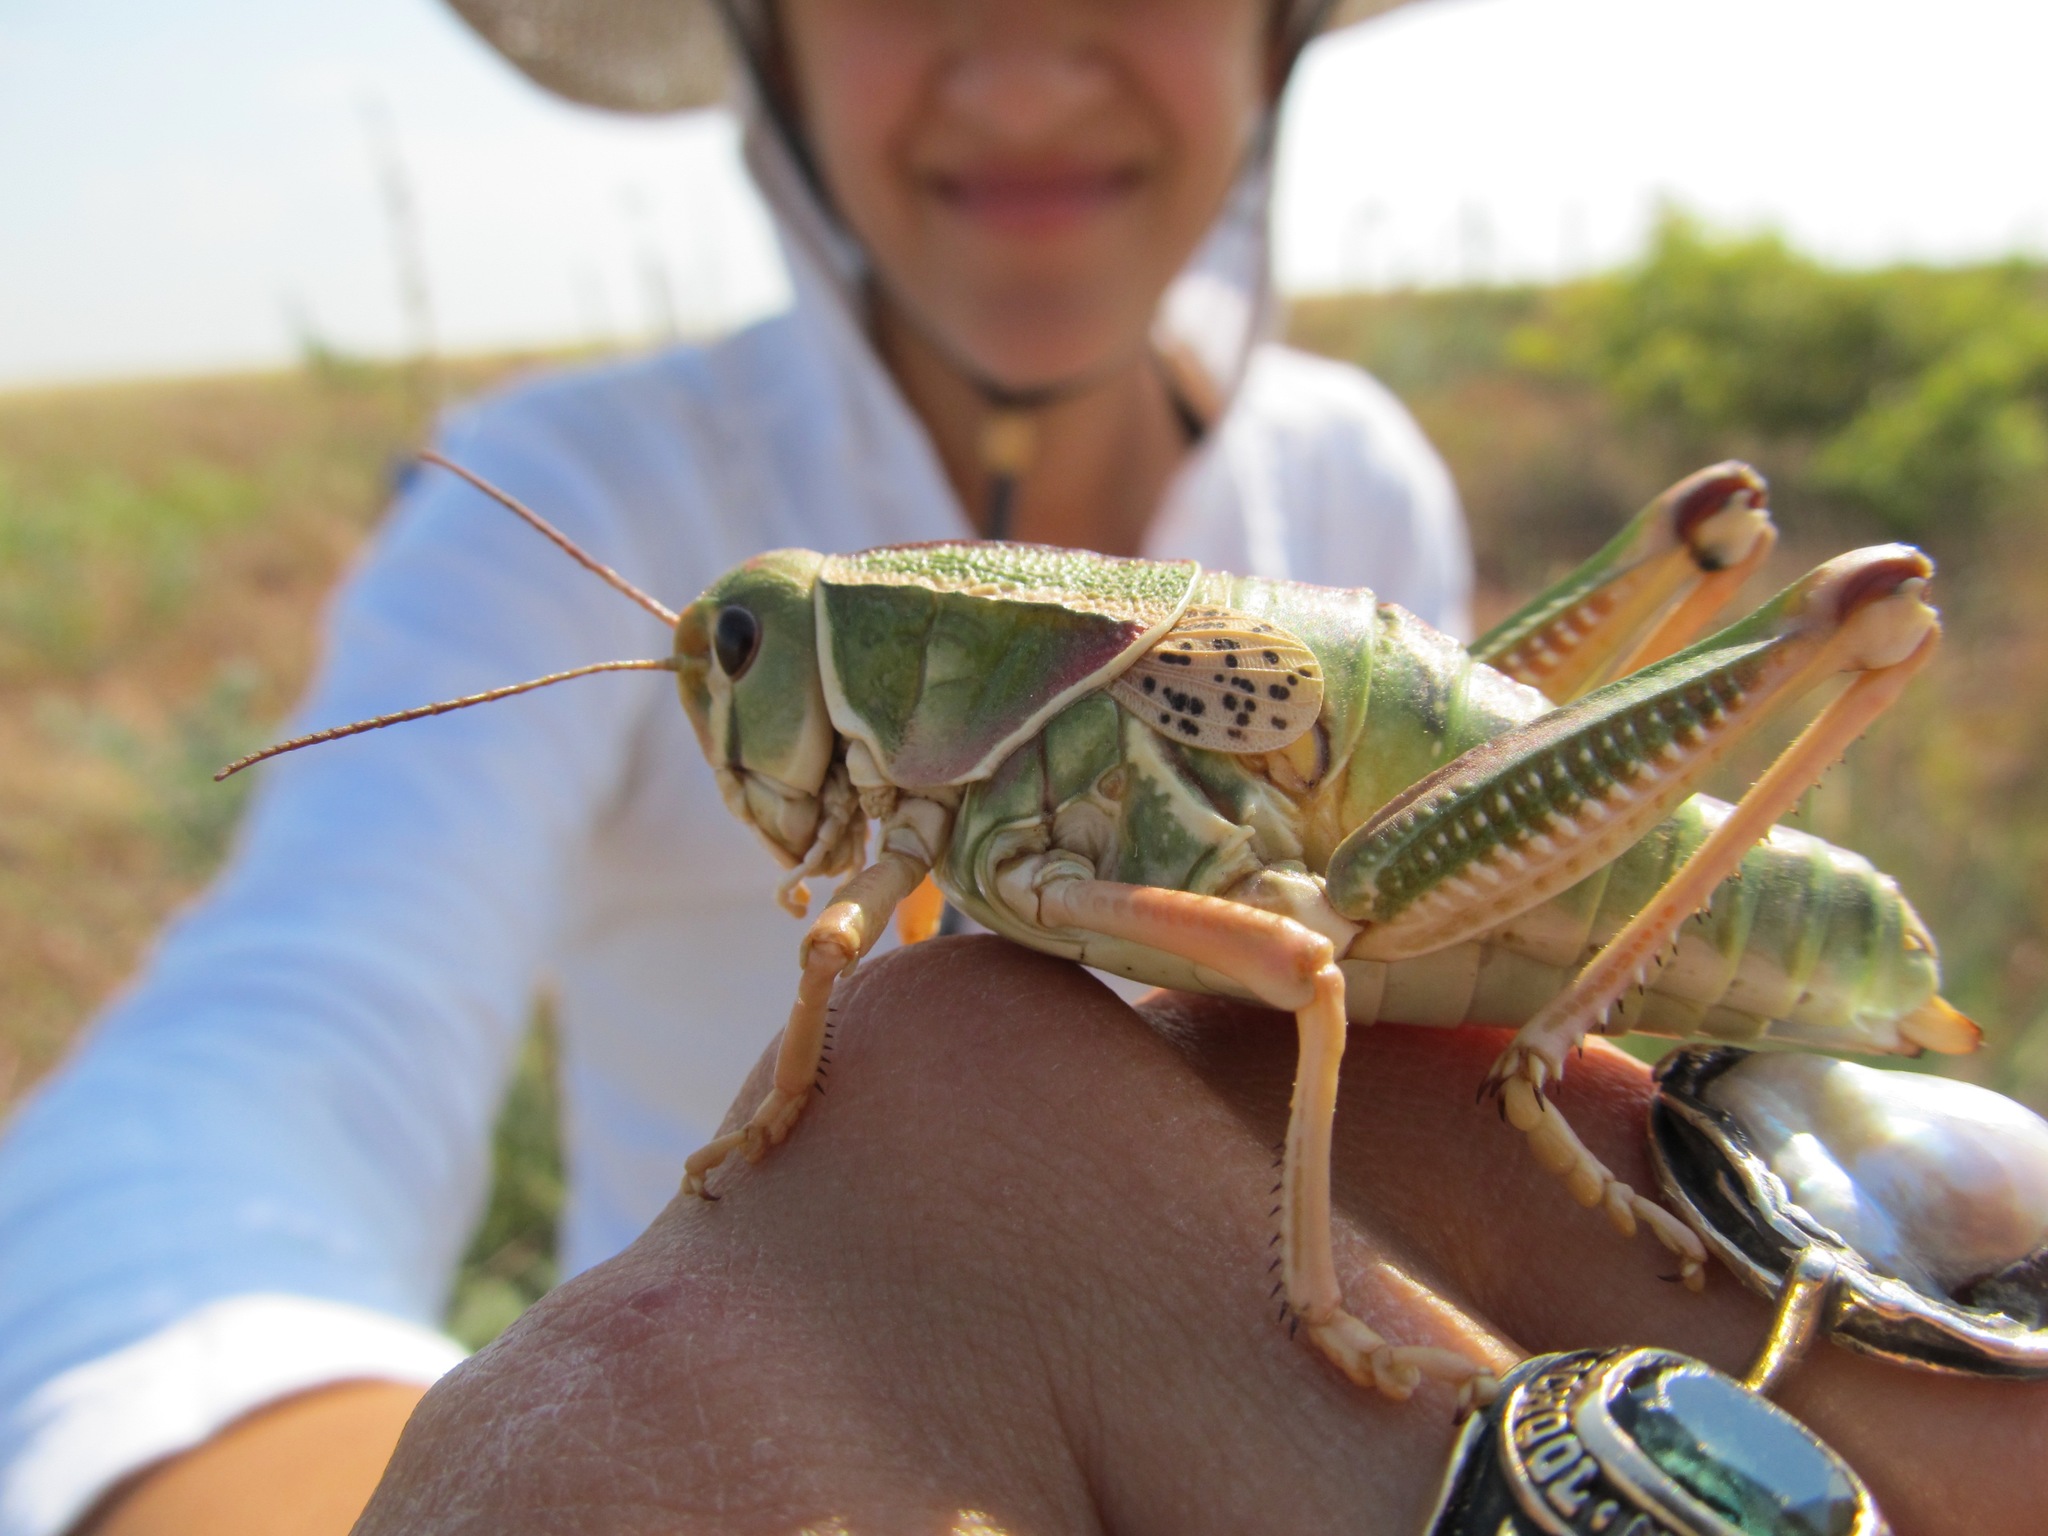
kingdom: Animalia
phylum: Arthropoda
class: Insecta
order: Orthoptera
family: Romaleidae
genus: Brachystola
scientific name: Brachystola magna
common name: Plains lubber grasshopper
